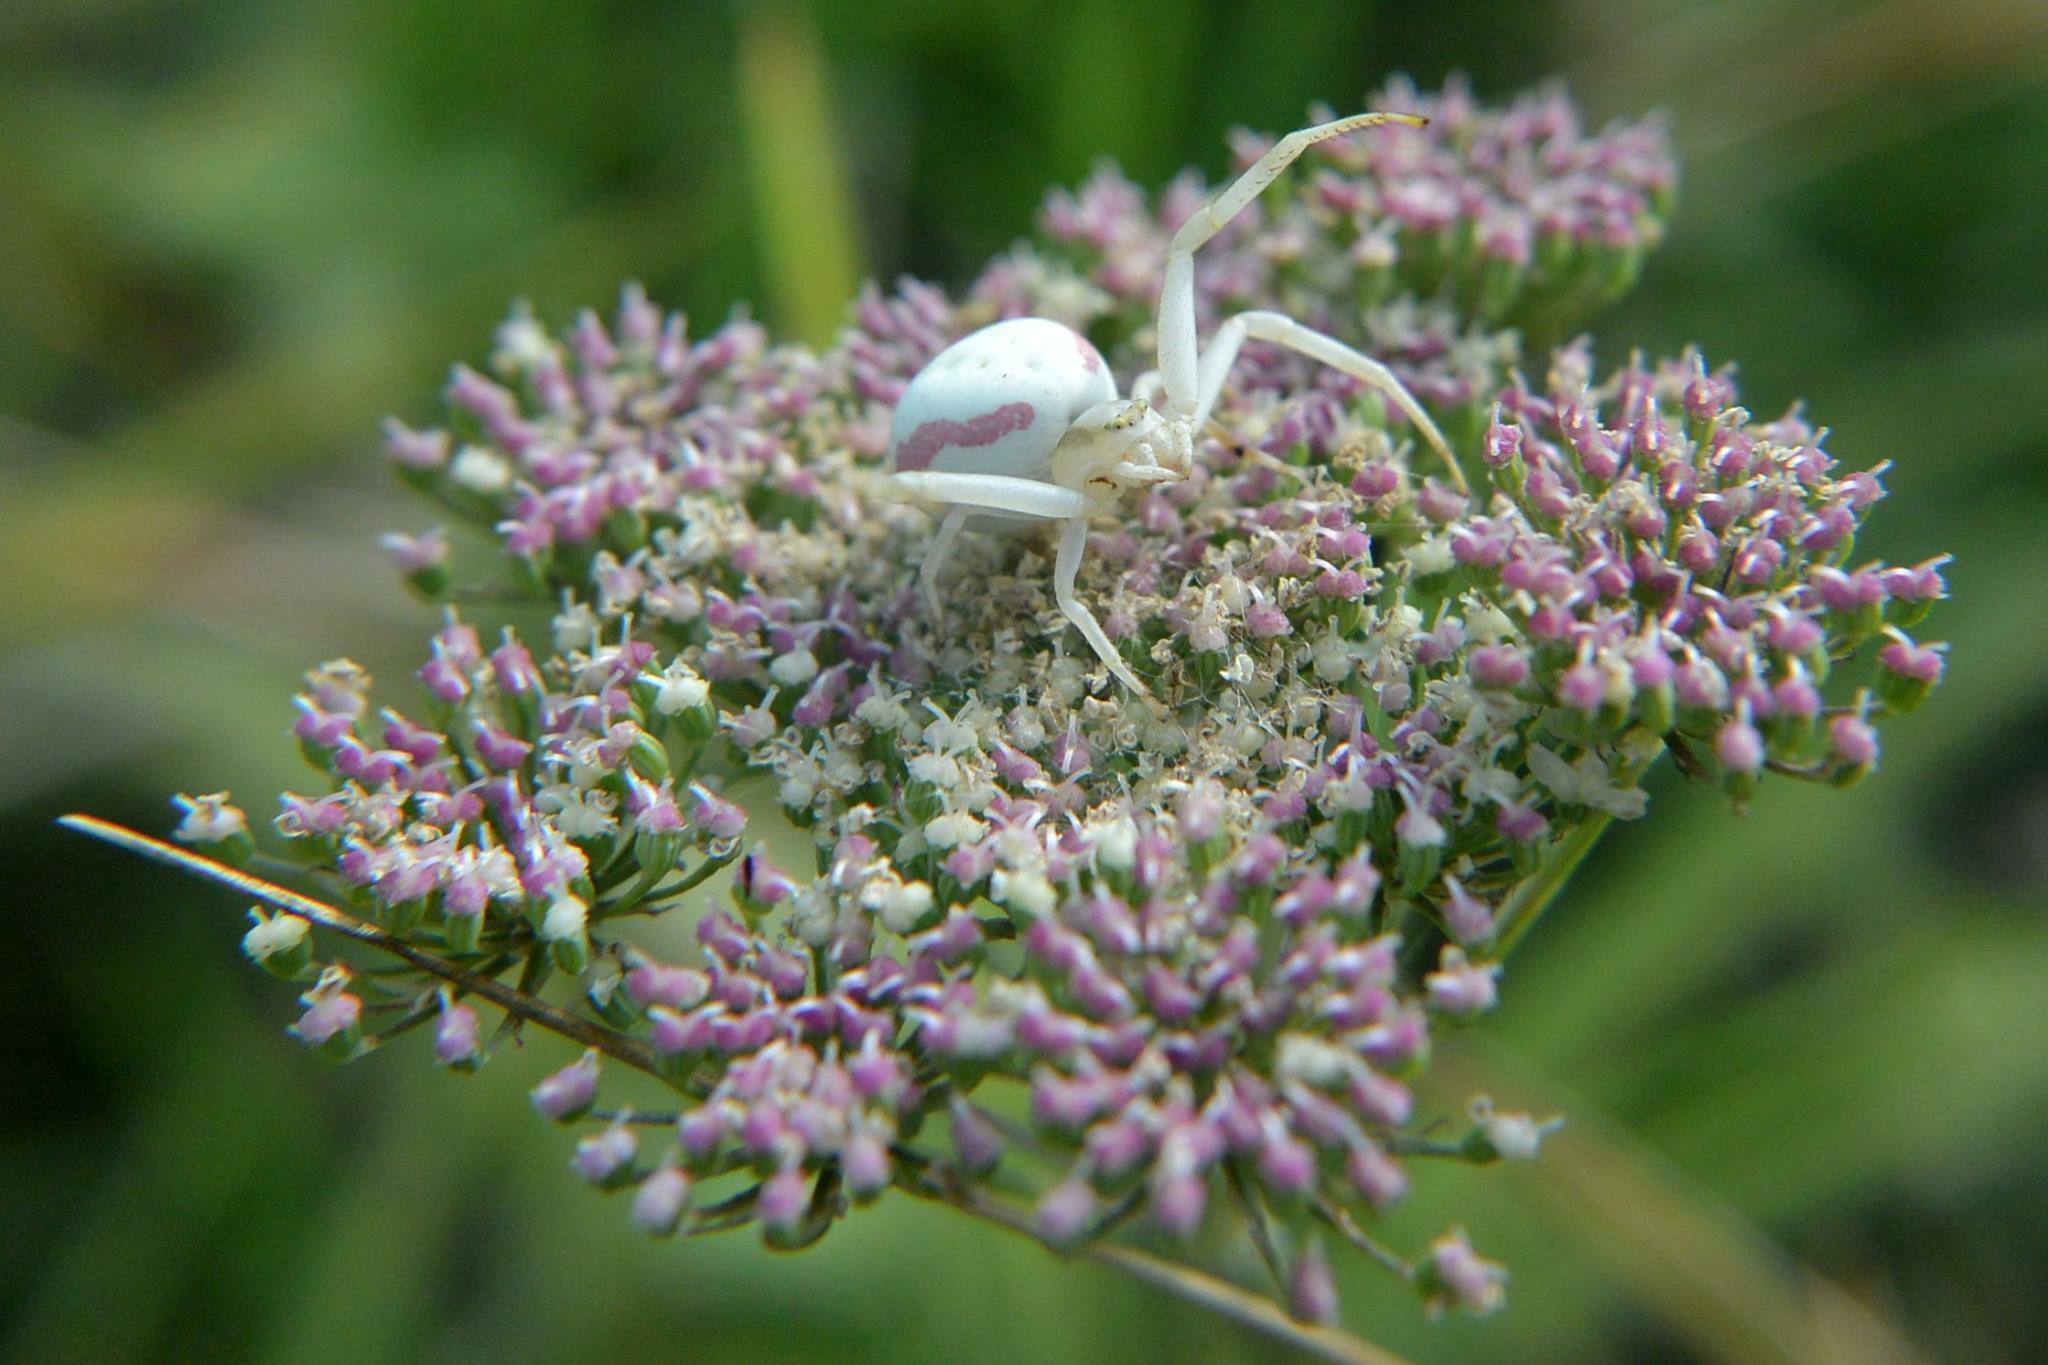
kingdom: Animalia
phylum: Arthropoda
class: Arachnida
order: Araneae
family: Thomisidae
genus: Misumena
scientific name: Misumena vatia
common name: Goldenrod crab spider
